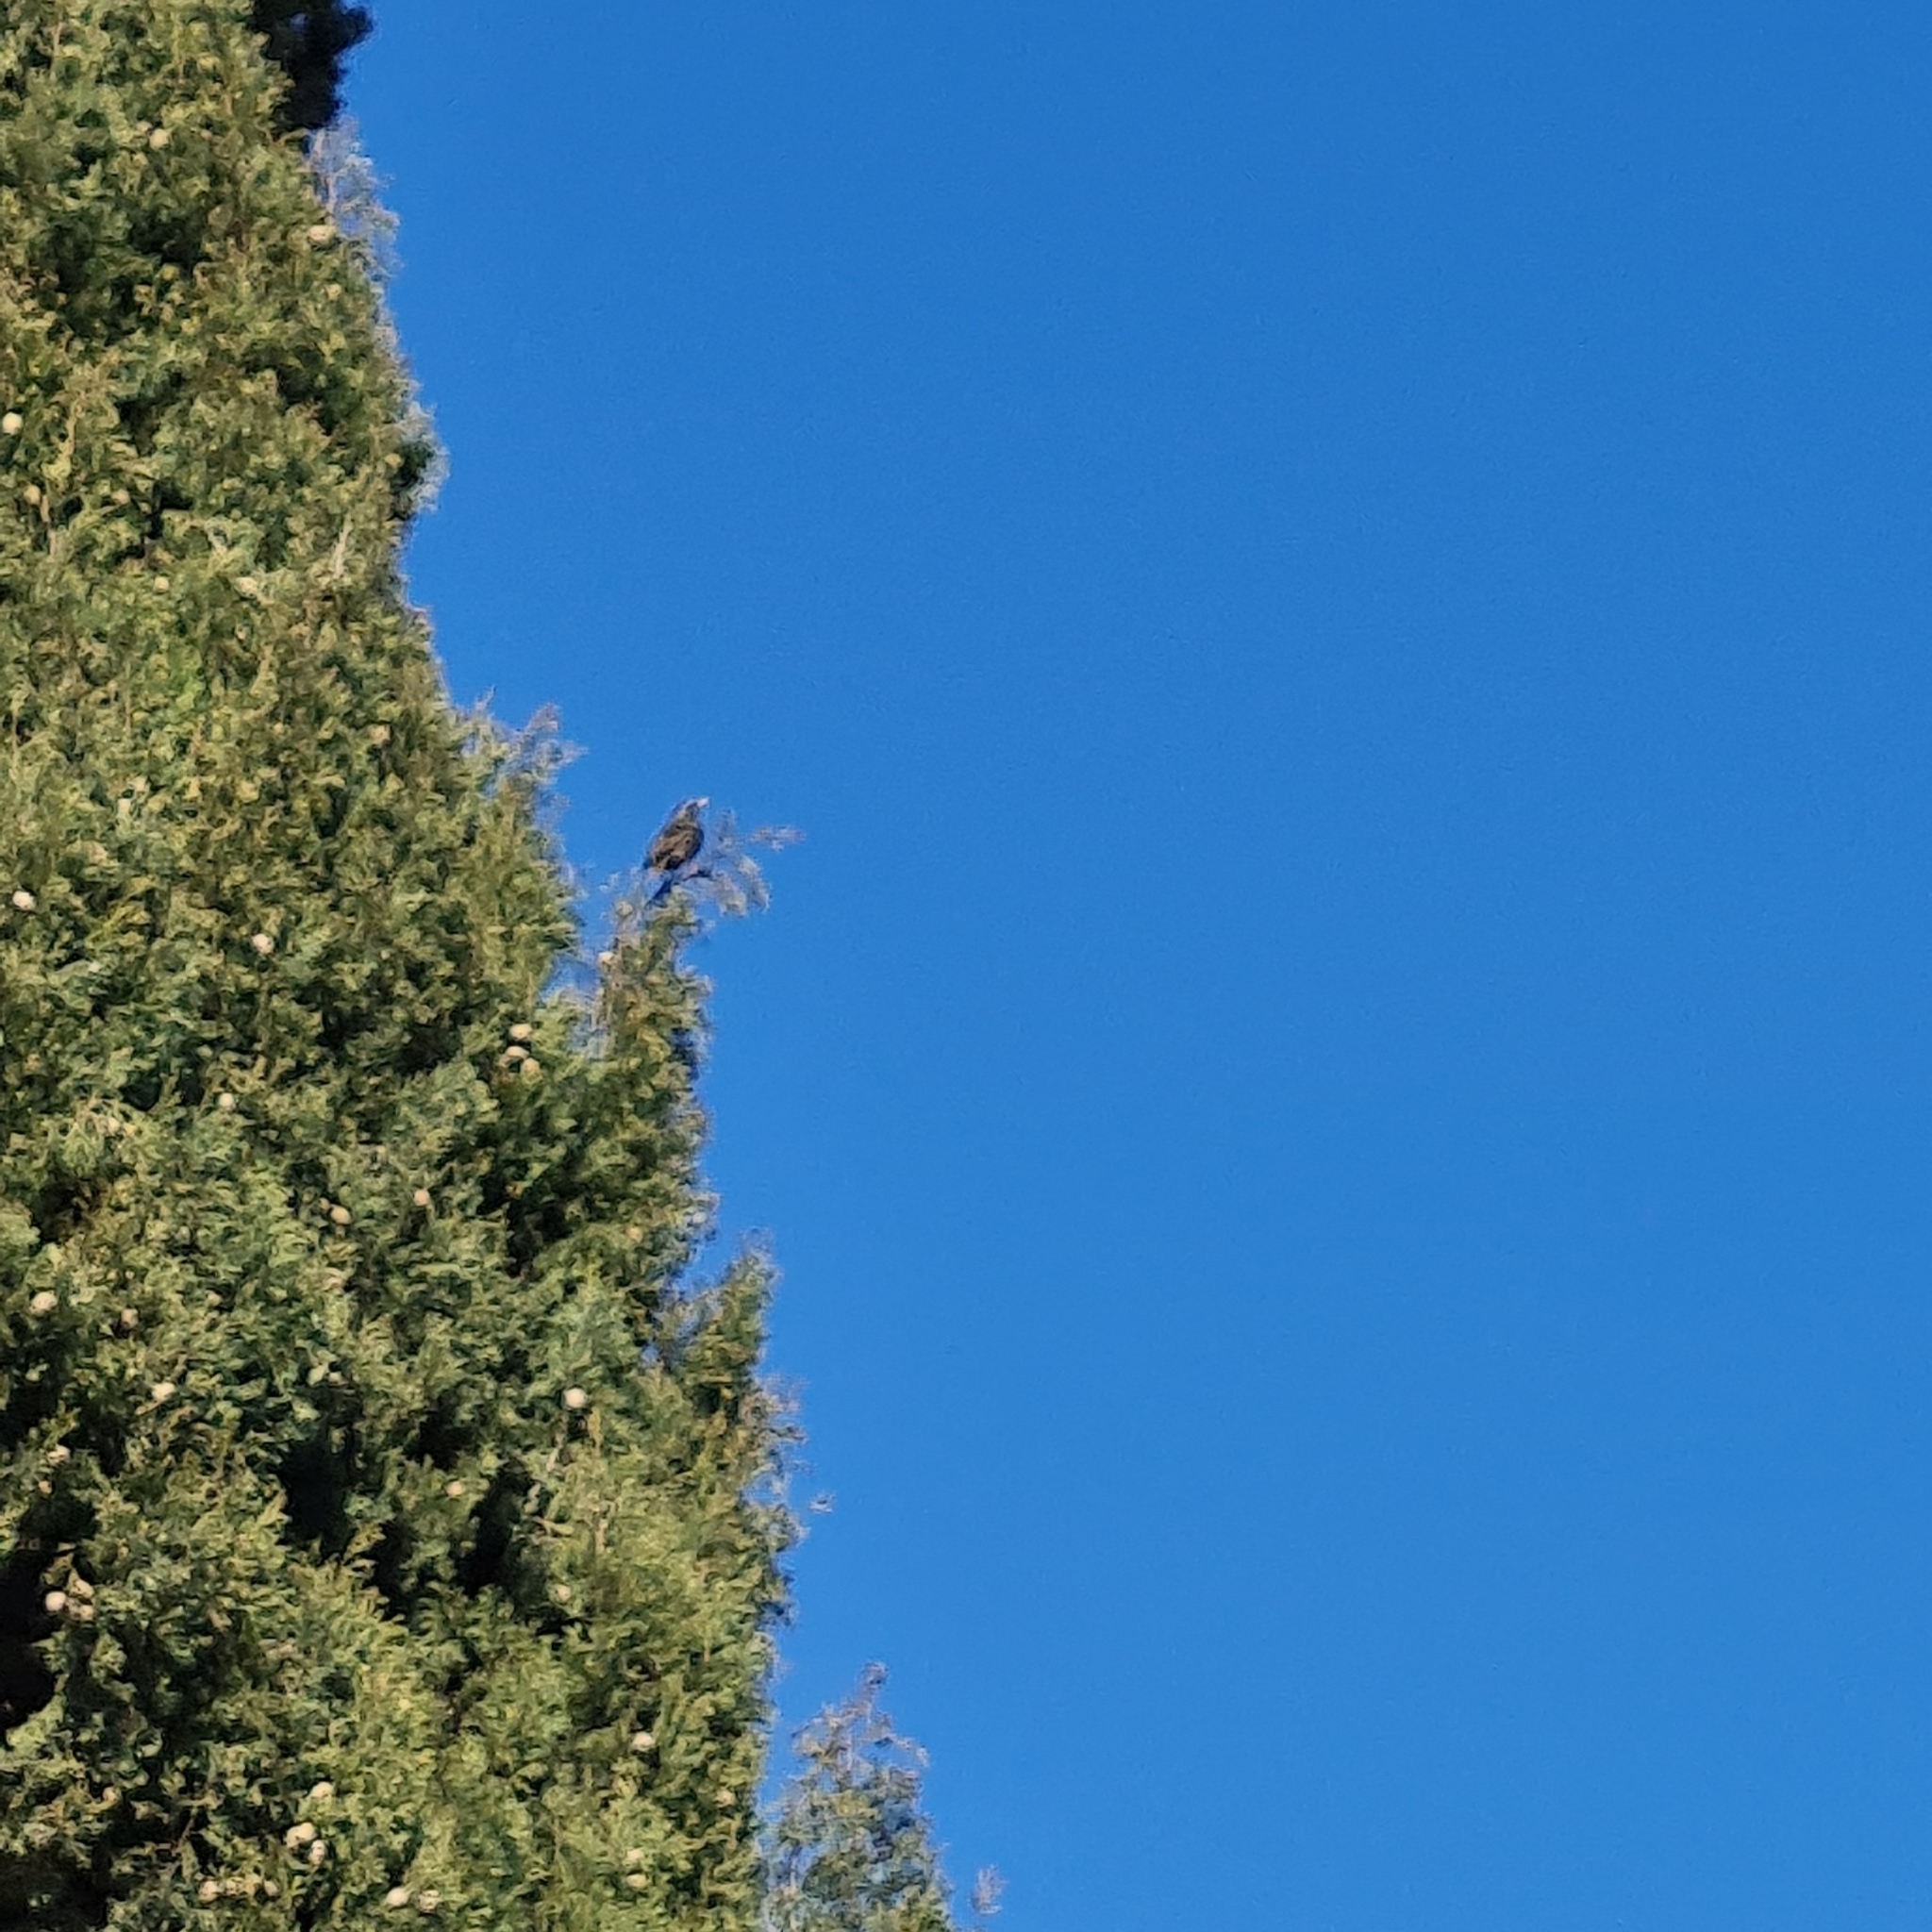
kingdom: Animalia
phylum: Chordata
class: Aves
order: Passeriformes
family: Sturnidae
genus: Sturnus
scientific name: Sturnus vulgaris
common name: Common starling
